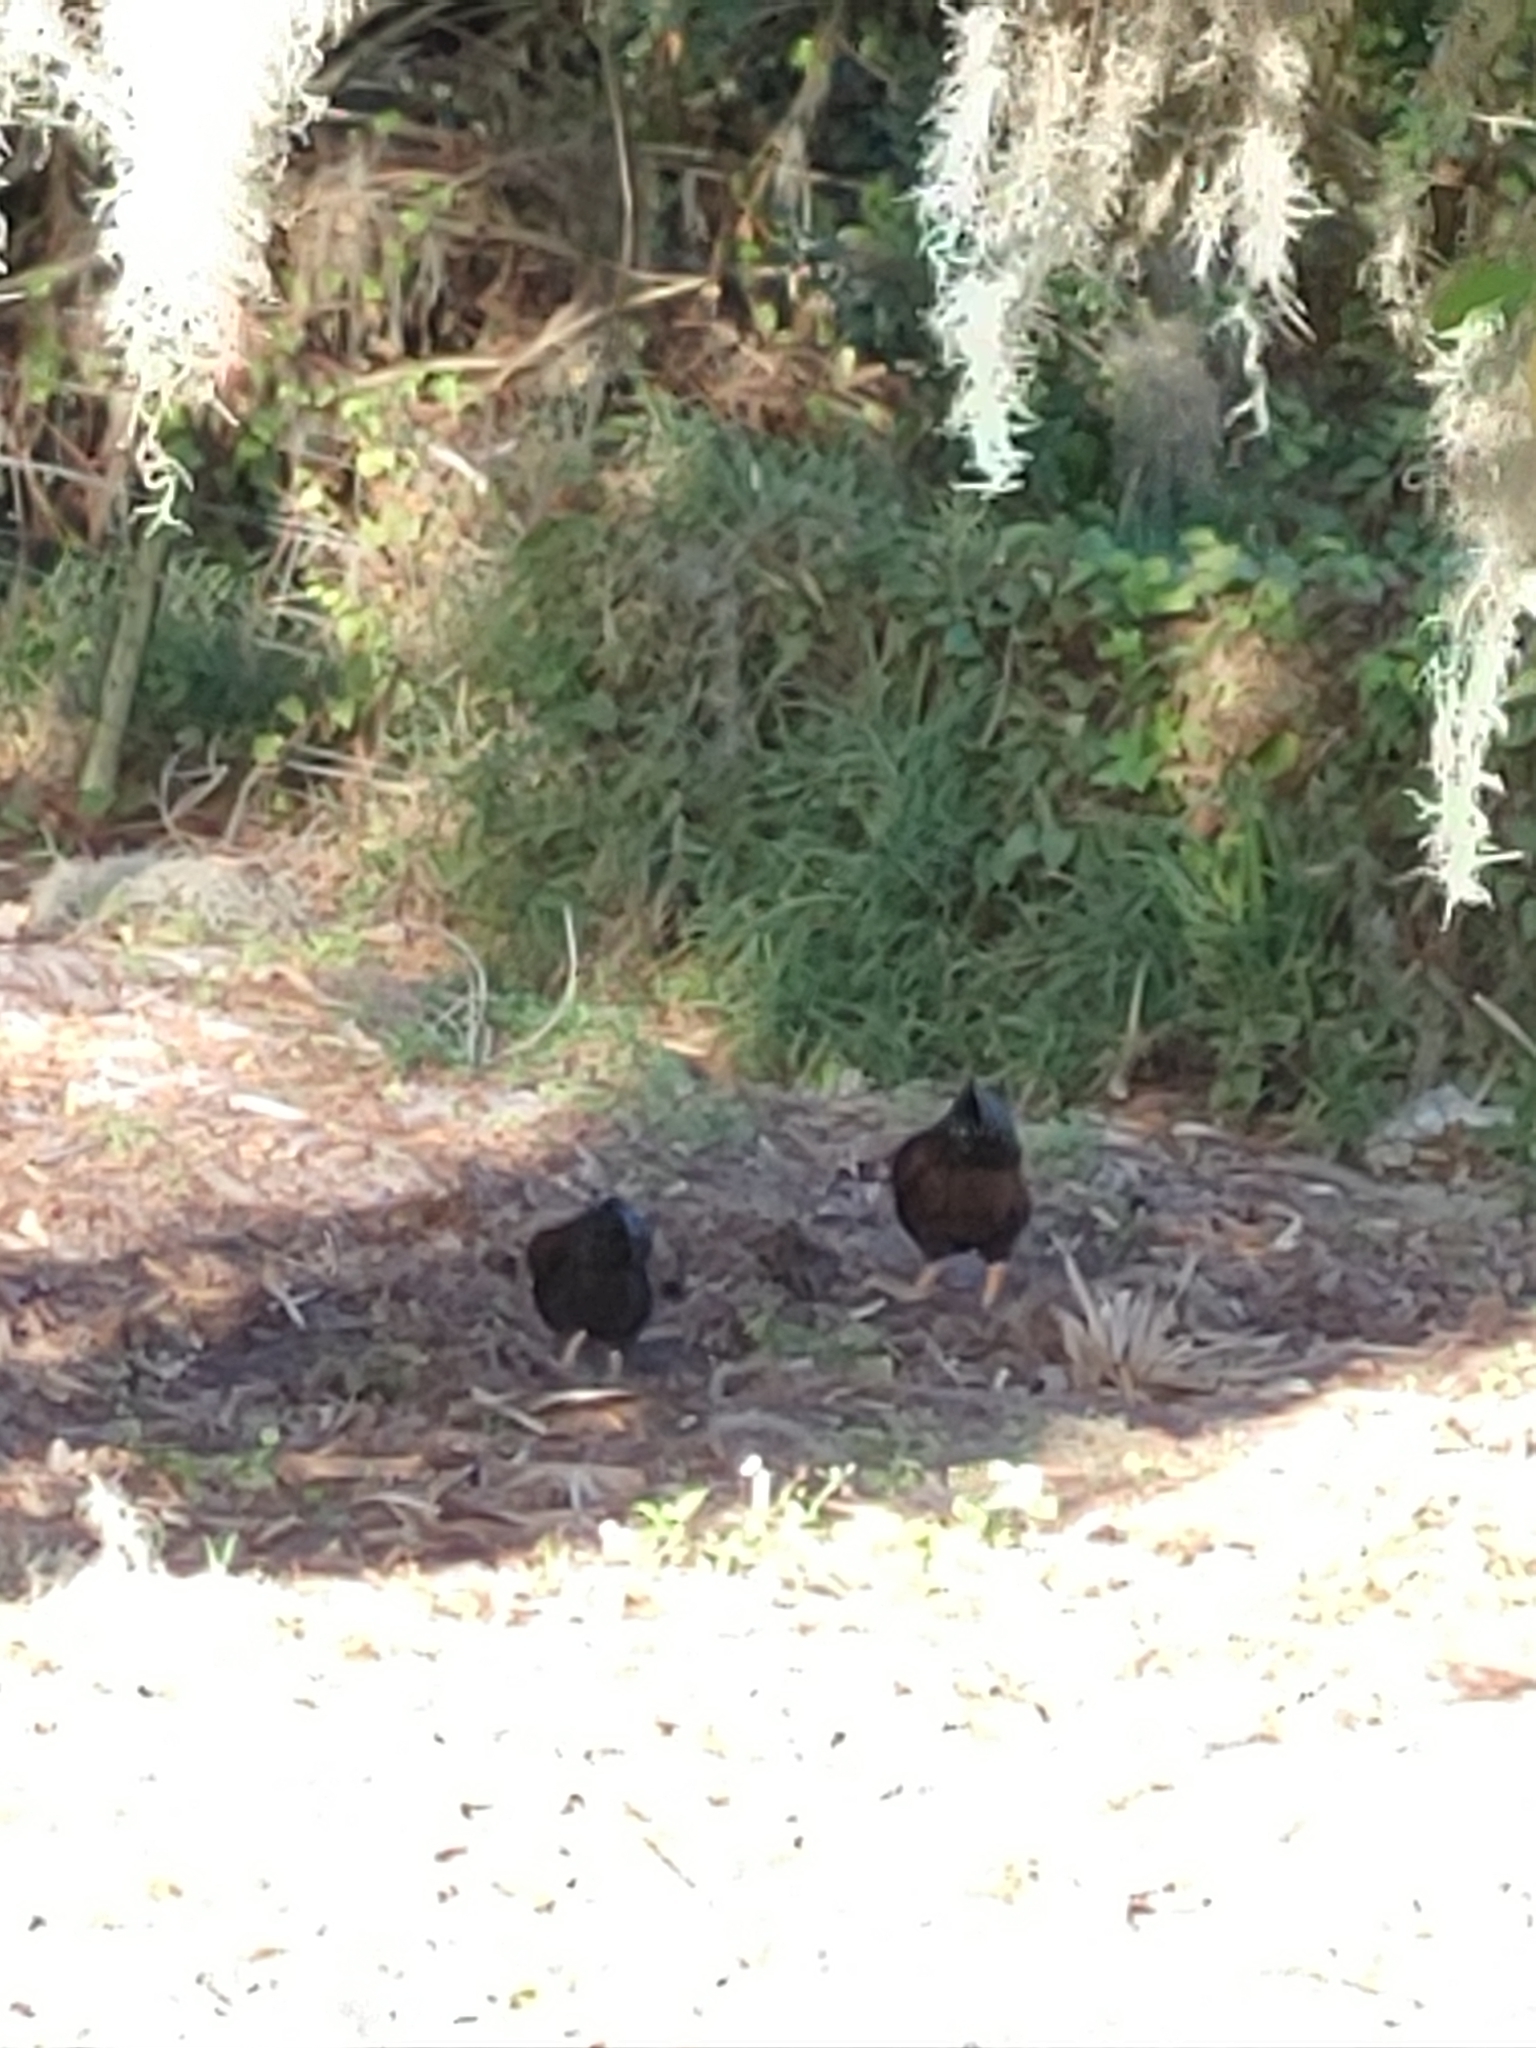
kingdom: Animalia
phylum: Chordata
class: Aves
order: Galliformes
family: Phasianidae
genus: Gallus
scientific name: Gallus gallus
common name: Red junglefowl
